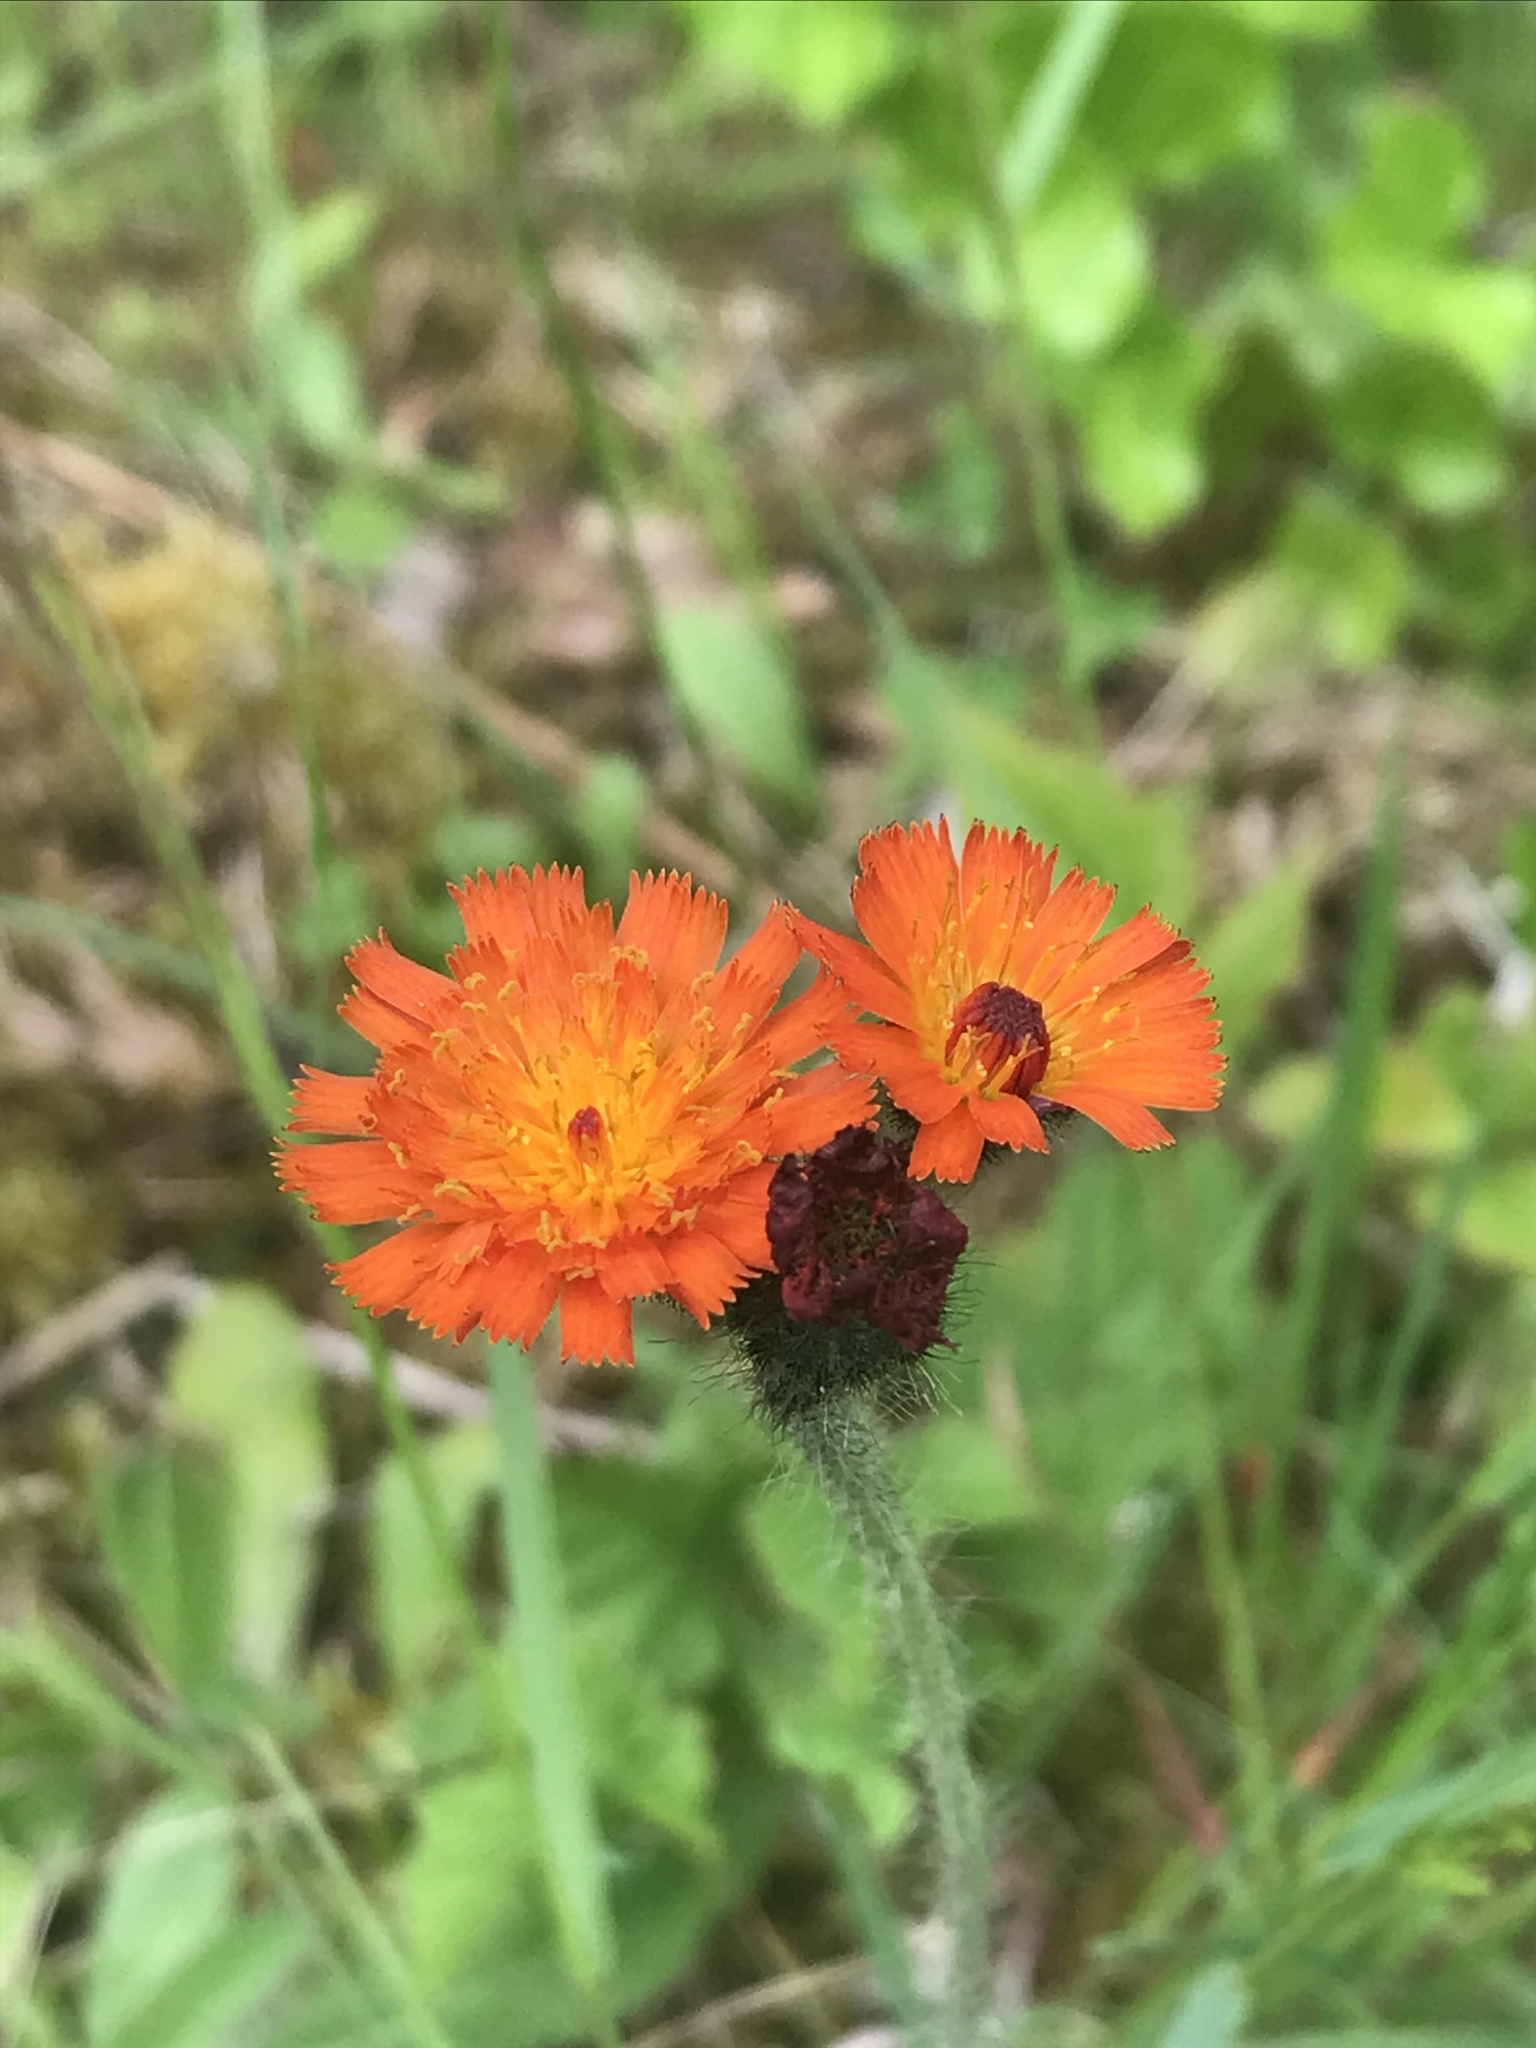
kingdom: Plantae
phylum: Tracheophyta
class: Magnoliopsida
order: Asterales
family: Asteraceae
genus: Pilosella
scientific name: Pilosella aurantiaca
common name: Fox-and-cubs
